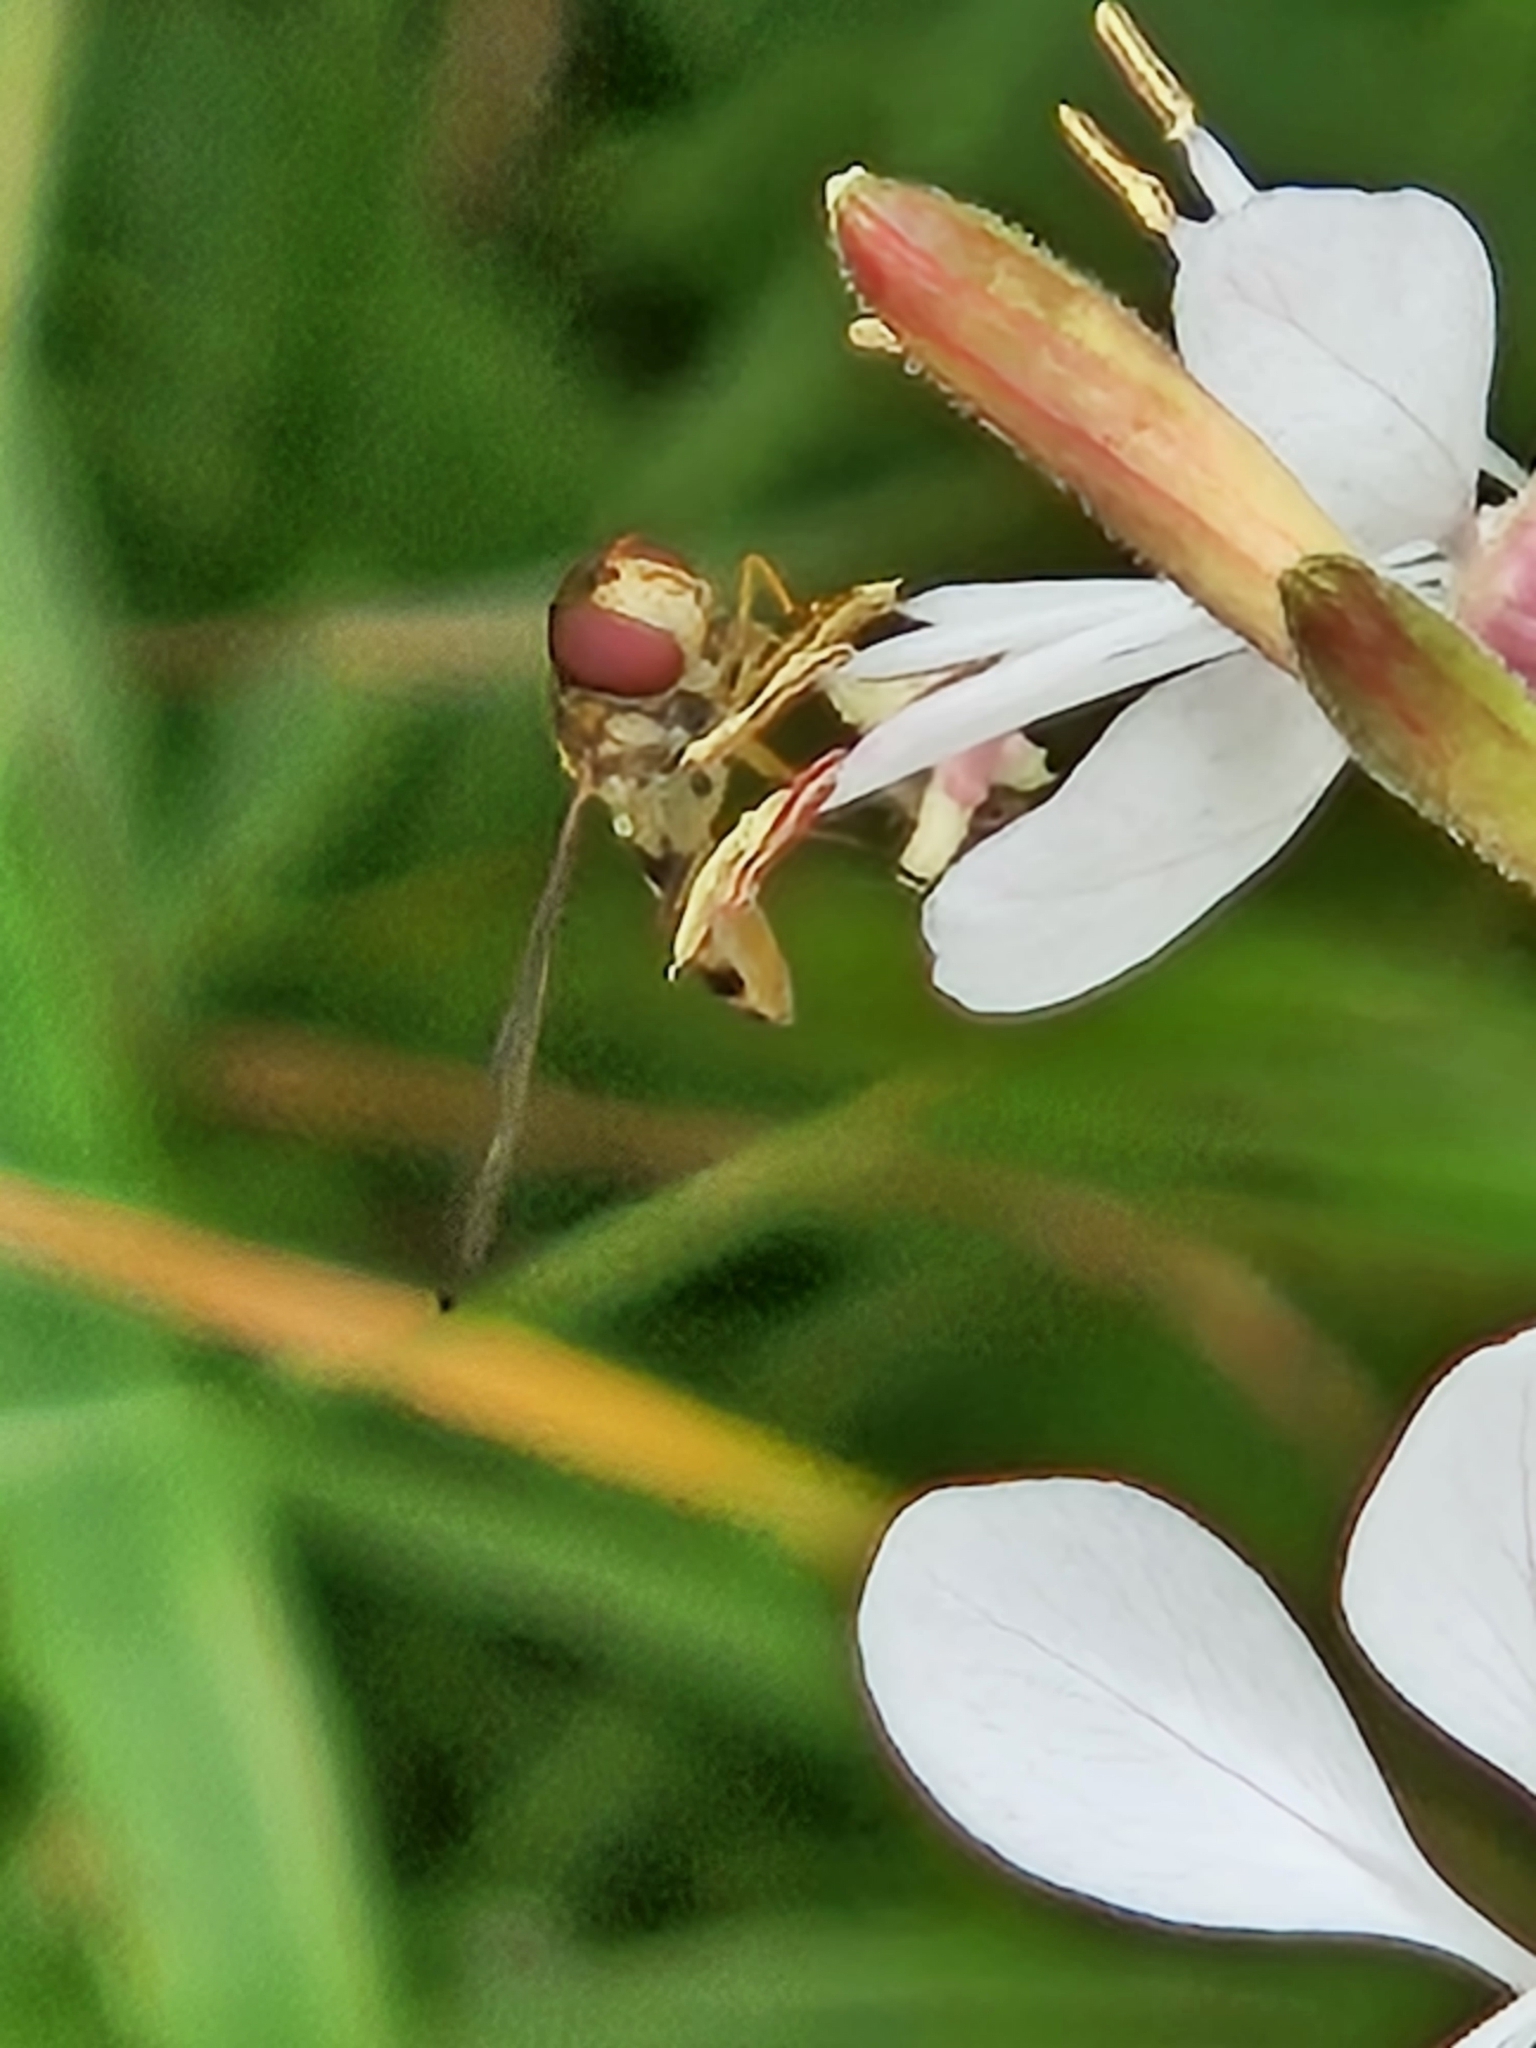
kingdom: Animalia
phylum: Arthropoda
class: Insecta
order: Diptera
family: Syrphidae
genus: Meliscaeva
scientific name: Meliscaeva cinctella
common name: American thintail fly
